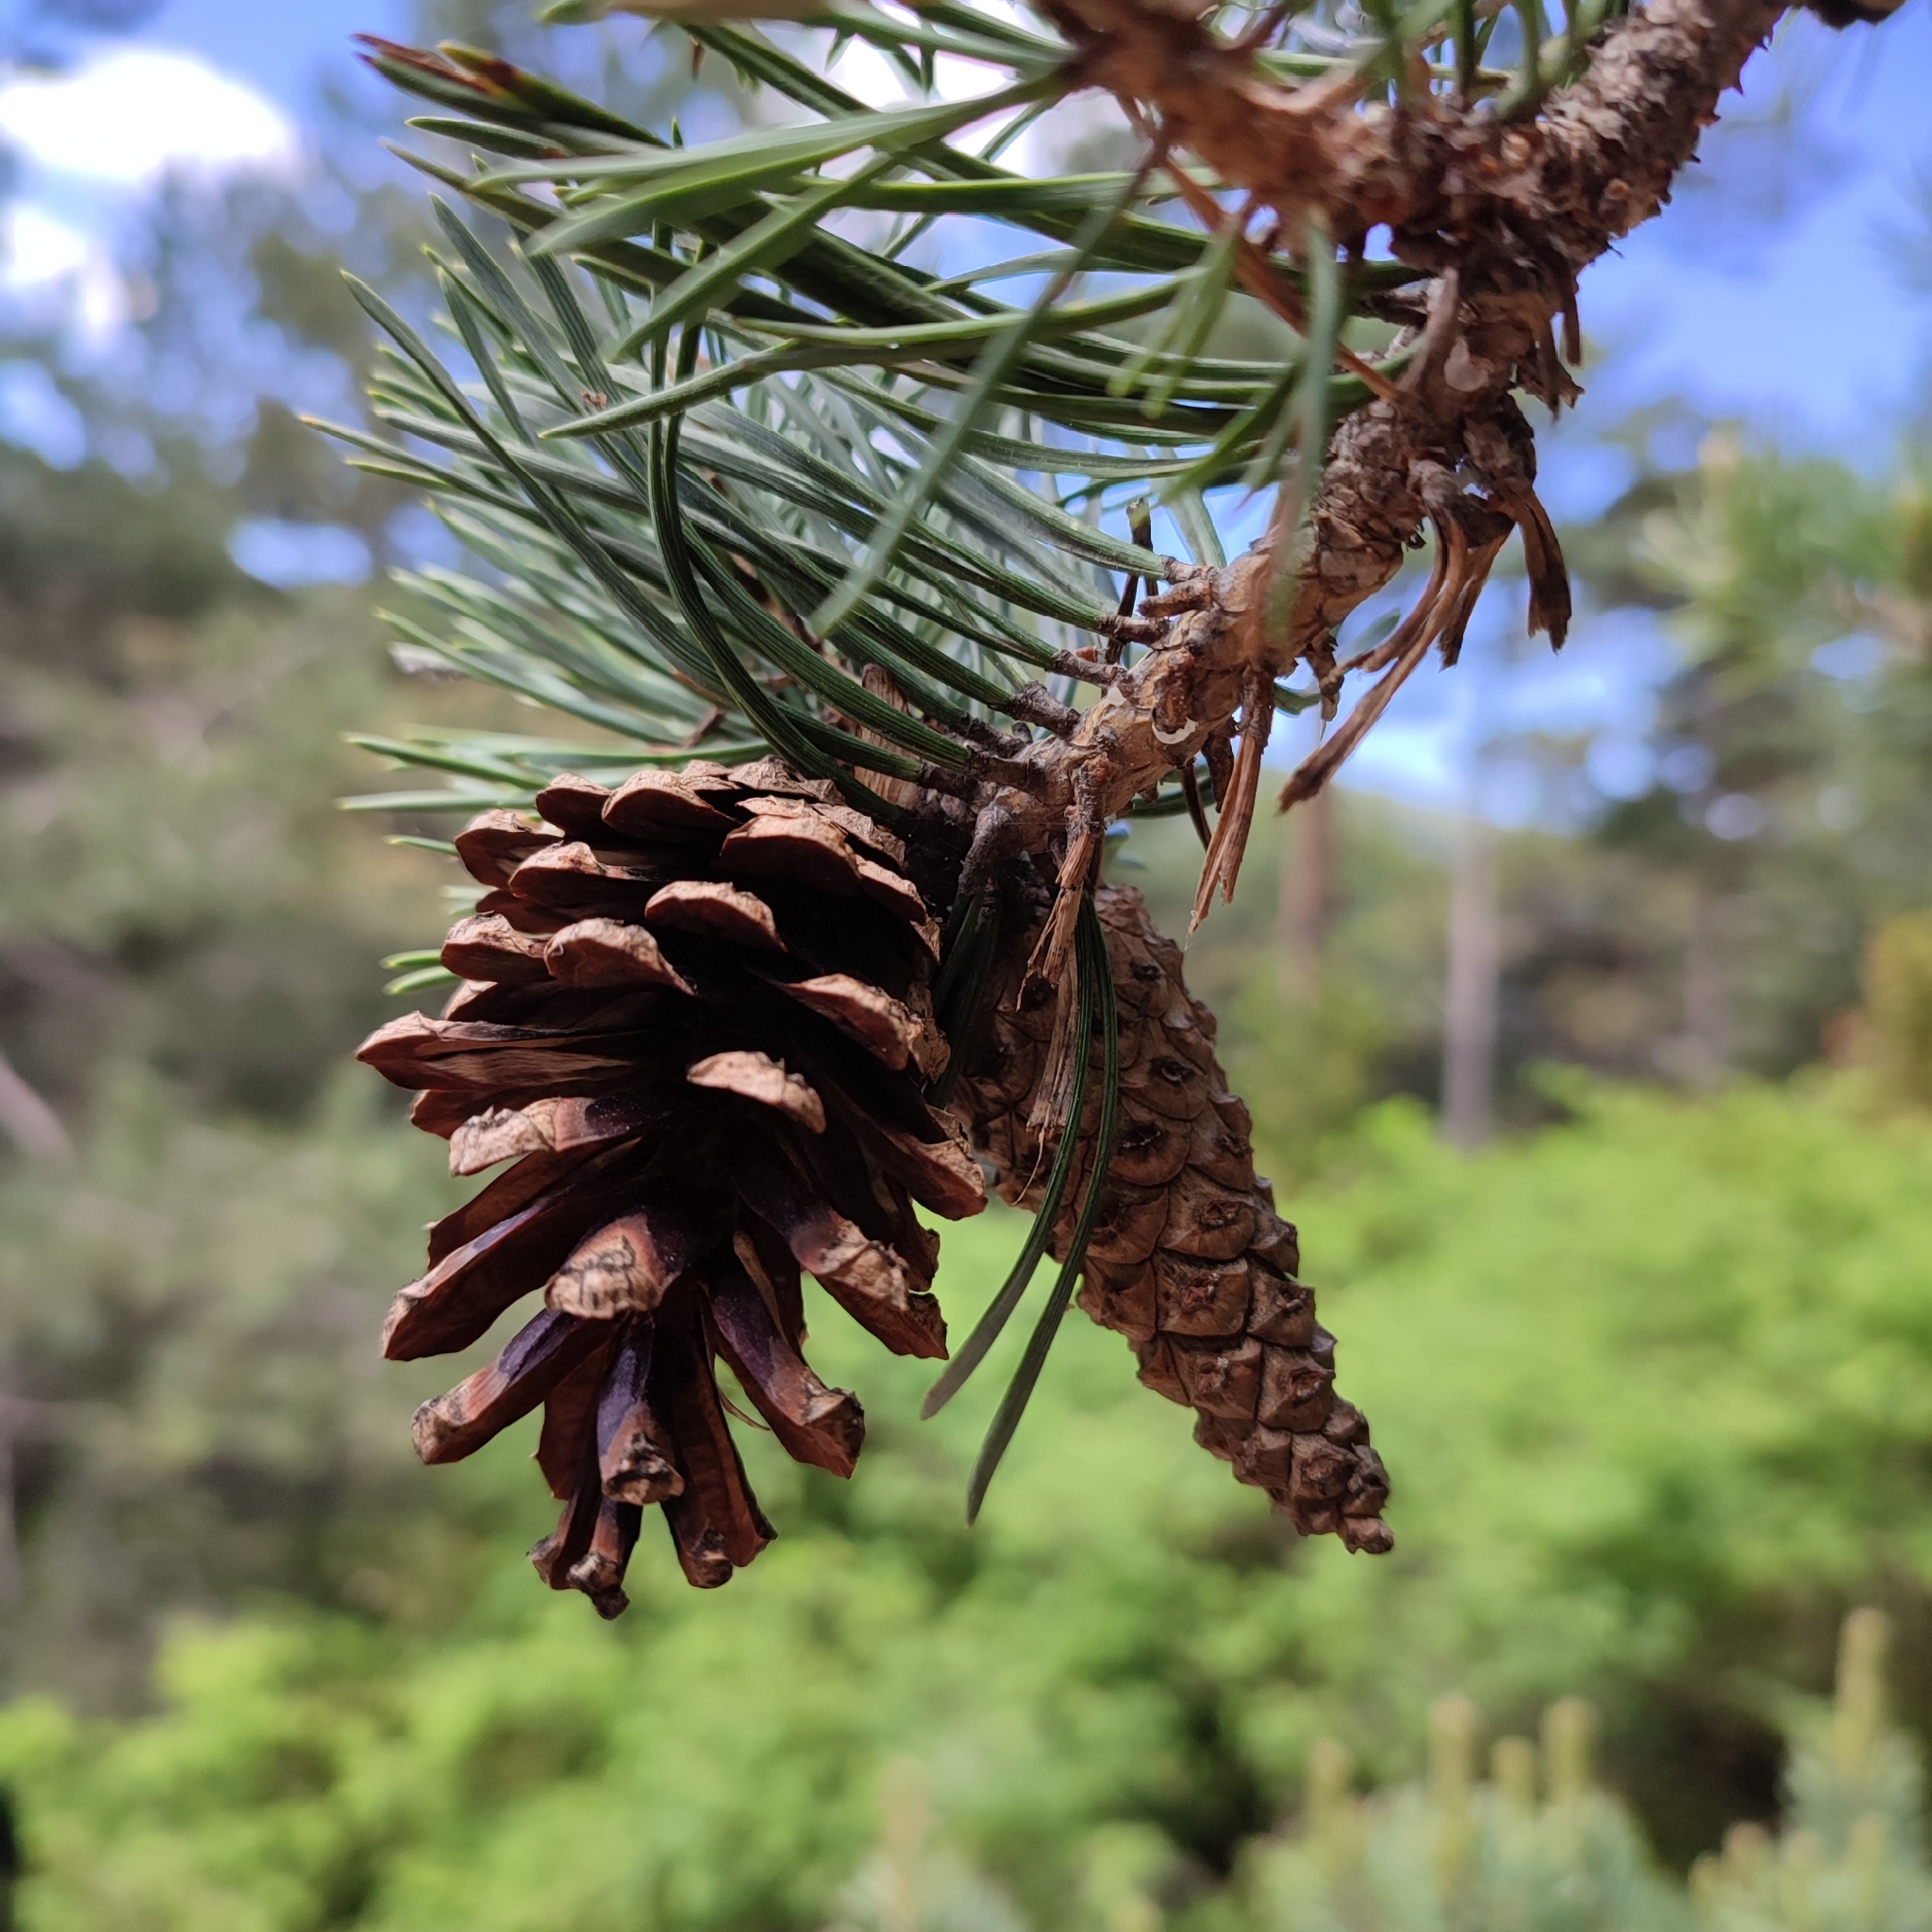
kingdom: Plantae
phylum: Tracheophyta
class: Pinopsida
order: Pinales
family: Pinaceae
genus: Pinus
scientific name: Pinus uncinata
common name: Mountain pine
